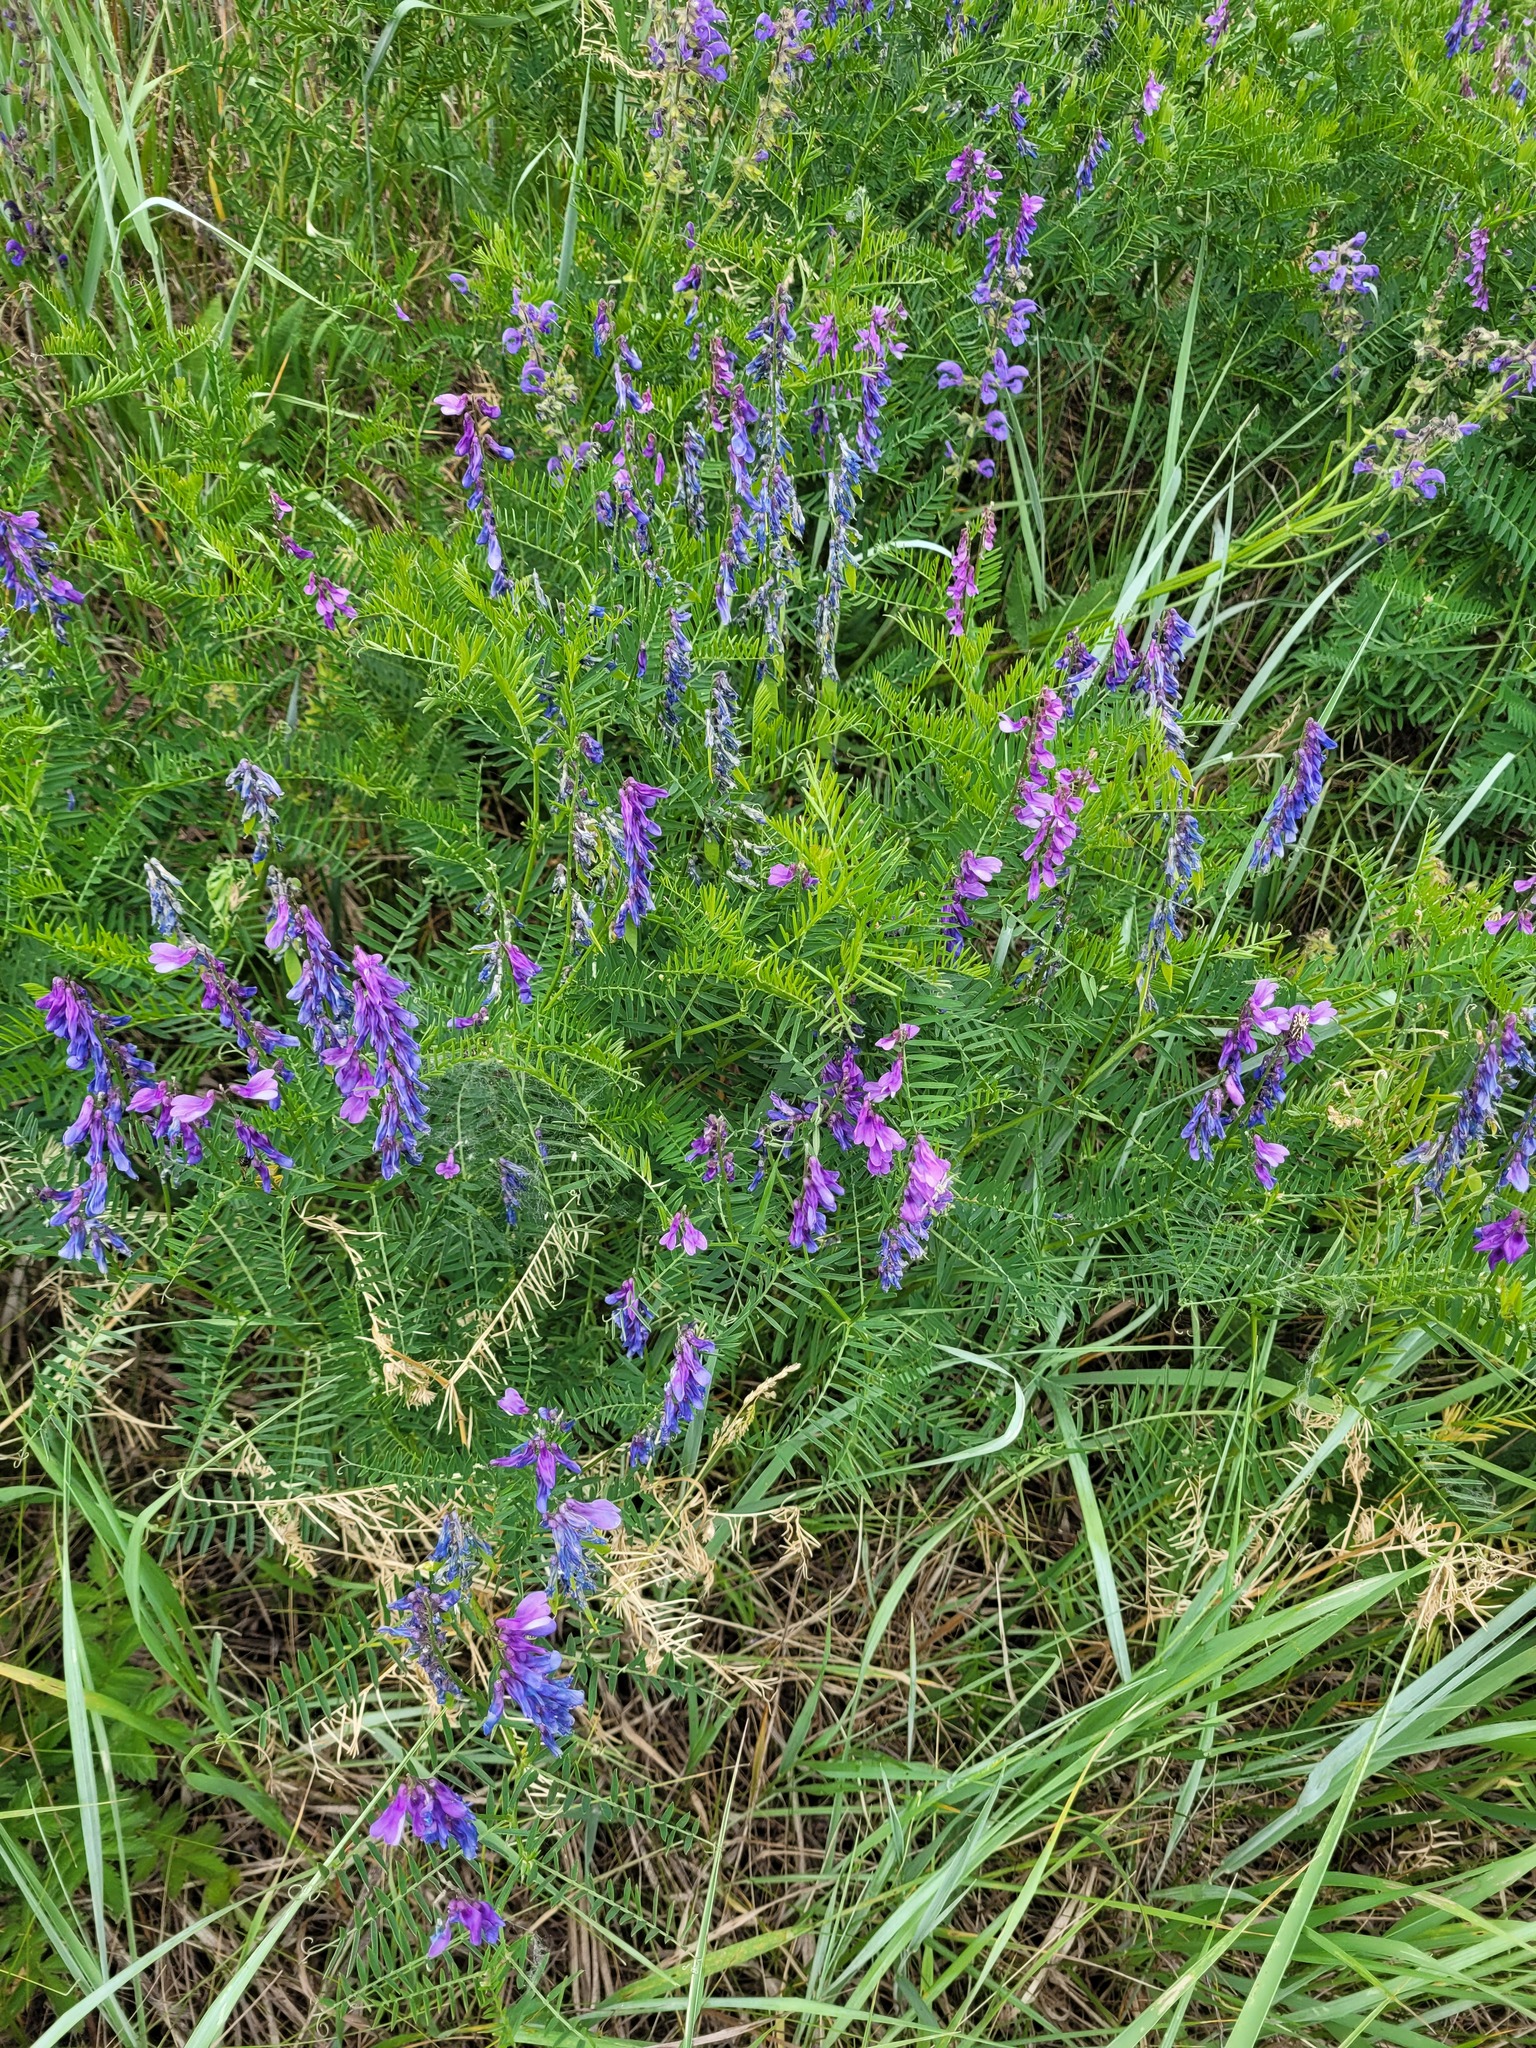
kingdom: Plantae
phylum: Tracheophyta
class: Magnoliopsida
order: Fabales
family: Fabaceae
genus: Vicia
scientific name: Vicia tenuifolia
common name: Fine-leaved vetch
